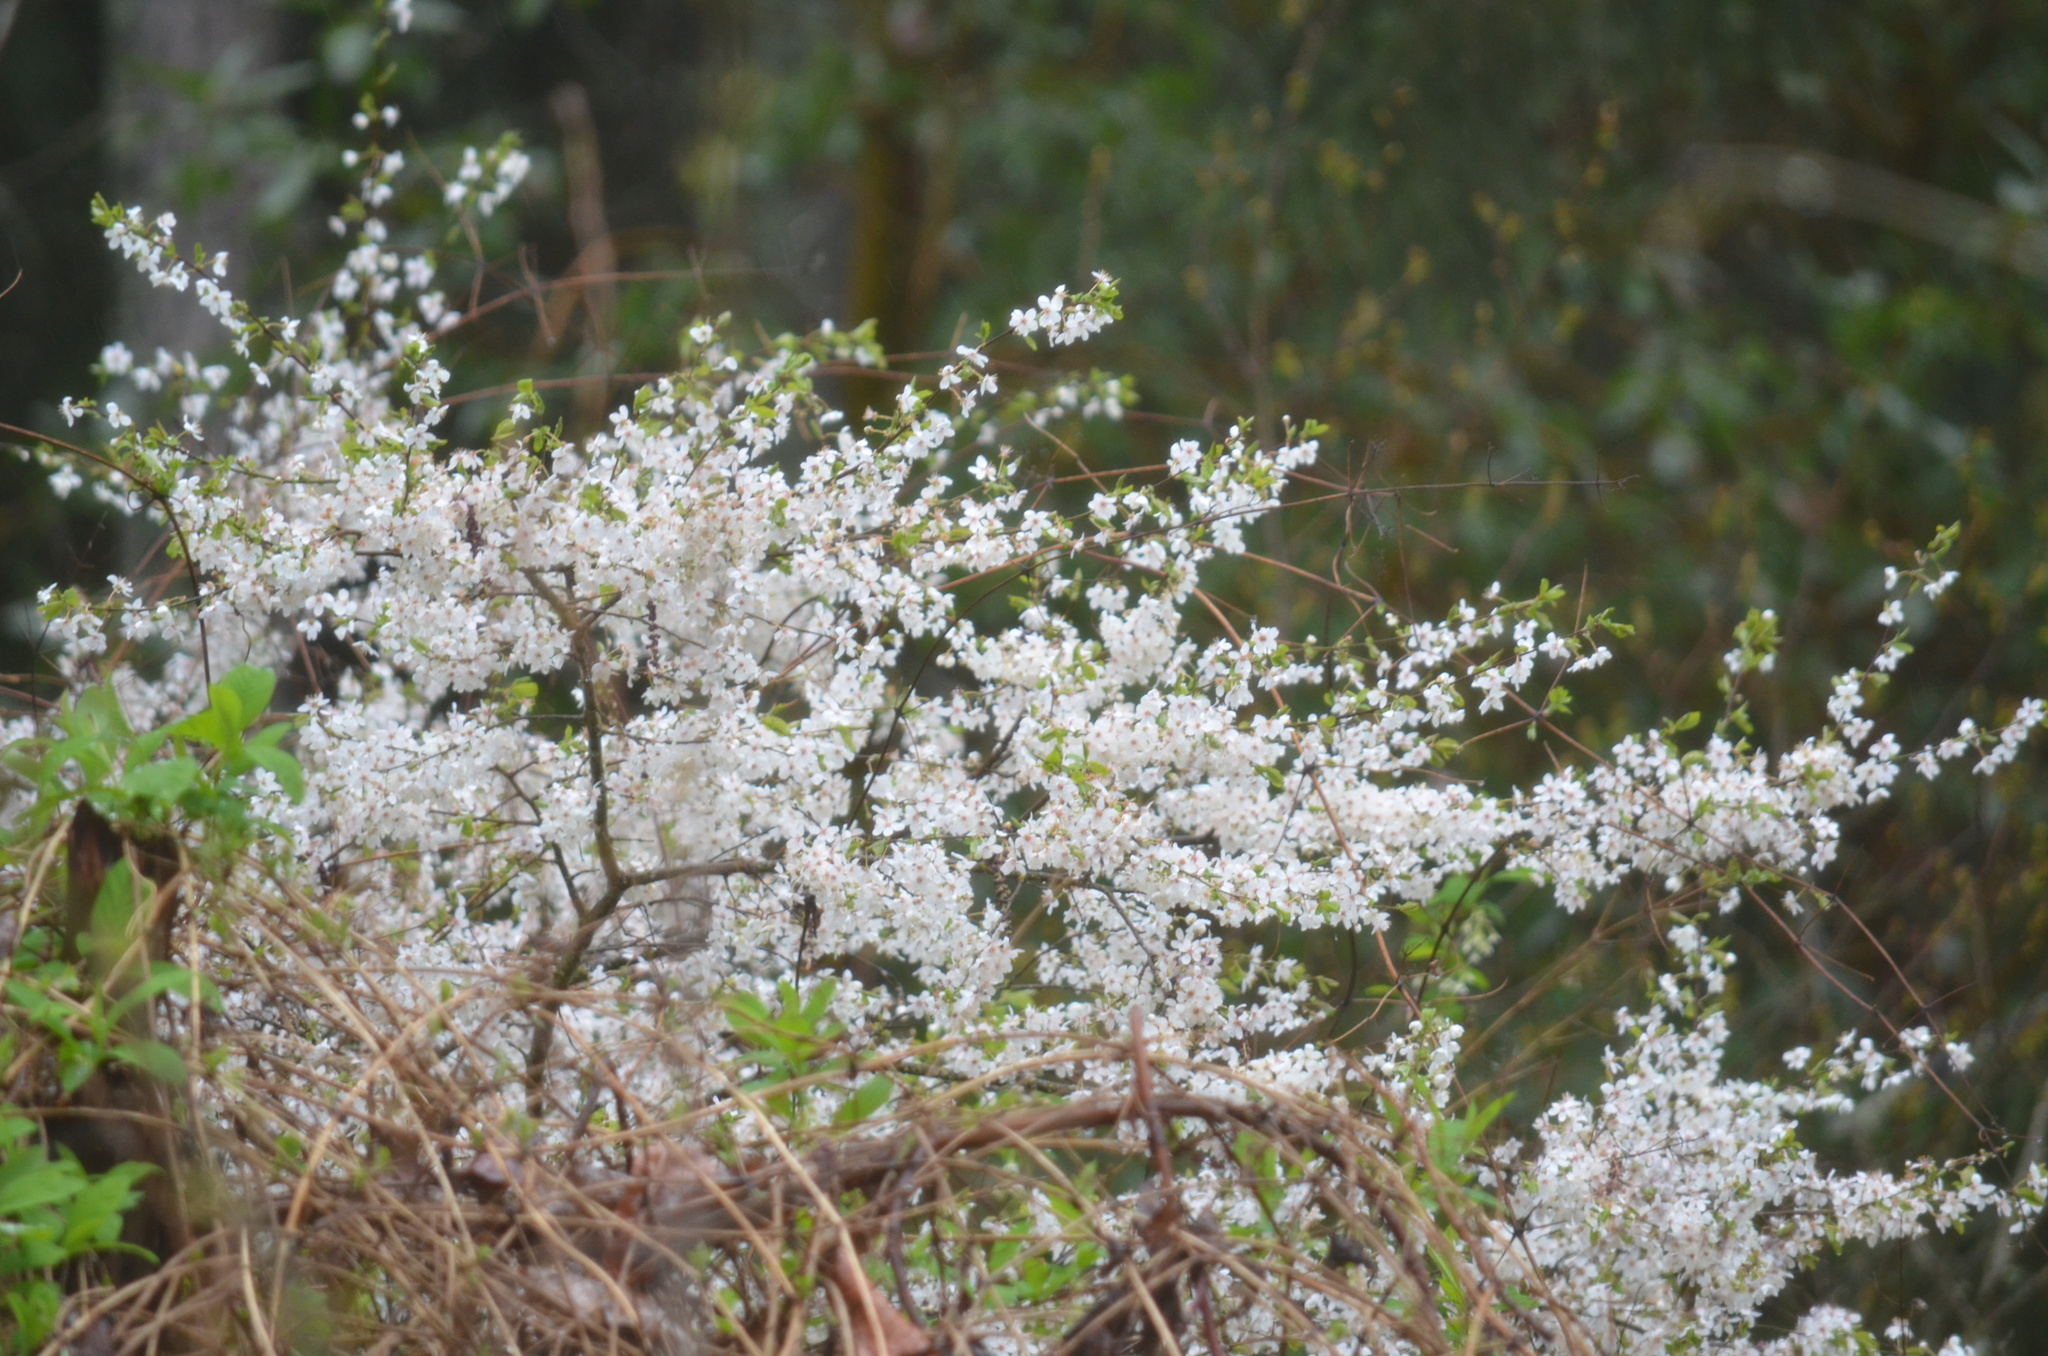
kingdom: Plantae
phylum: Tracheophyta
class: Magnoliopsida
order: Rosales
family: Rosaceae
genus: Prunus
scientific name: Prunus cerasifera
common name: Cherry plum
